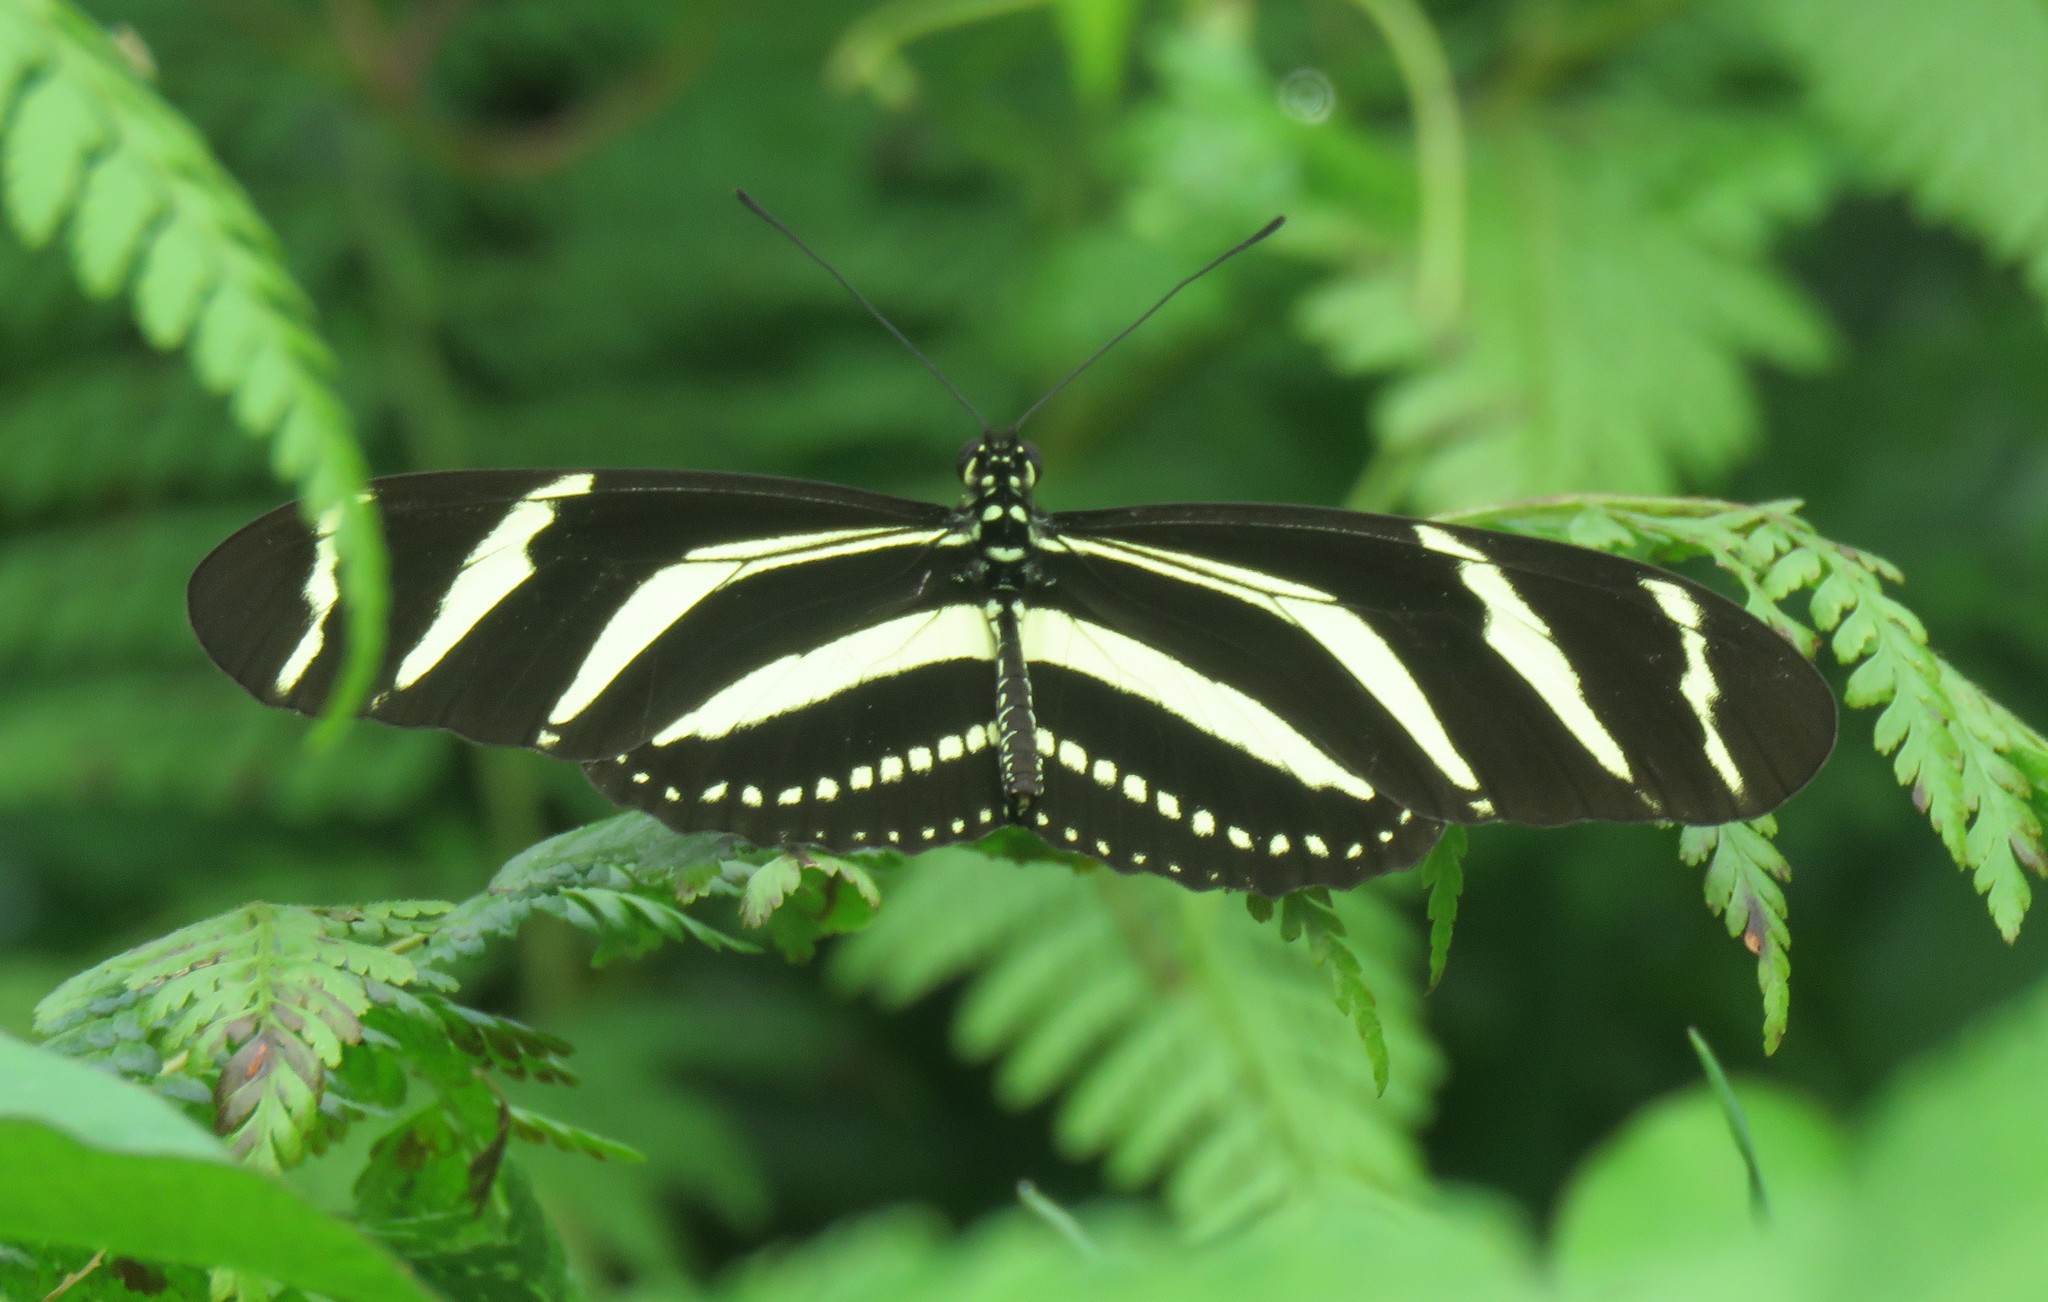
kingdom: Animalia
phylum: Arthropoda
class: Insecta
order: Lepidoptera
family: Nymphalidae
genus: Heliconius
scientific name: Heliconius charithonia
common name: Zebra long wing
